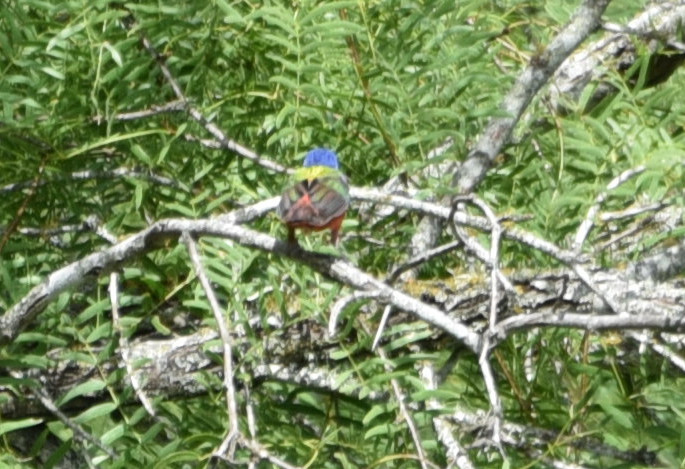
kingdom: Animalia
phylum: Chordata
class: Aves
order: Passeriformes
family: Cardinalidae
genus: Passerina
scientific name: Passerina ciris
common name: Painted bunting
